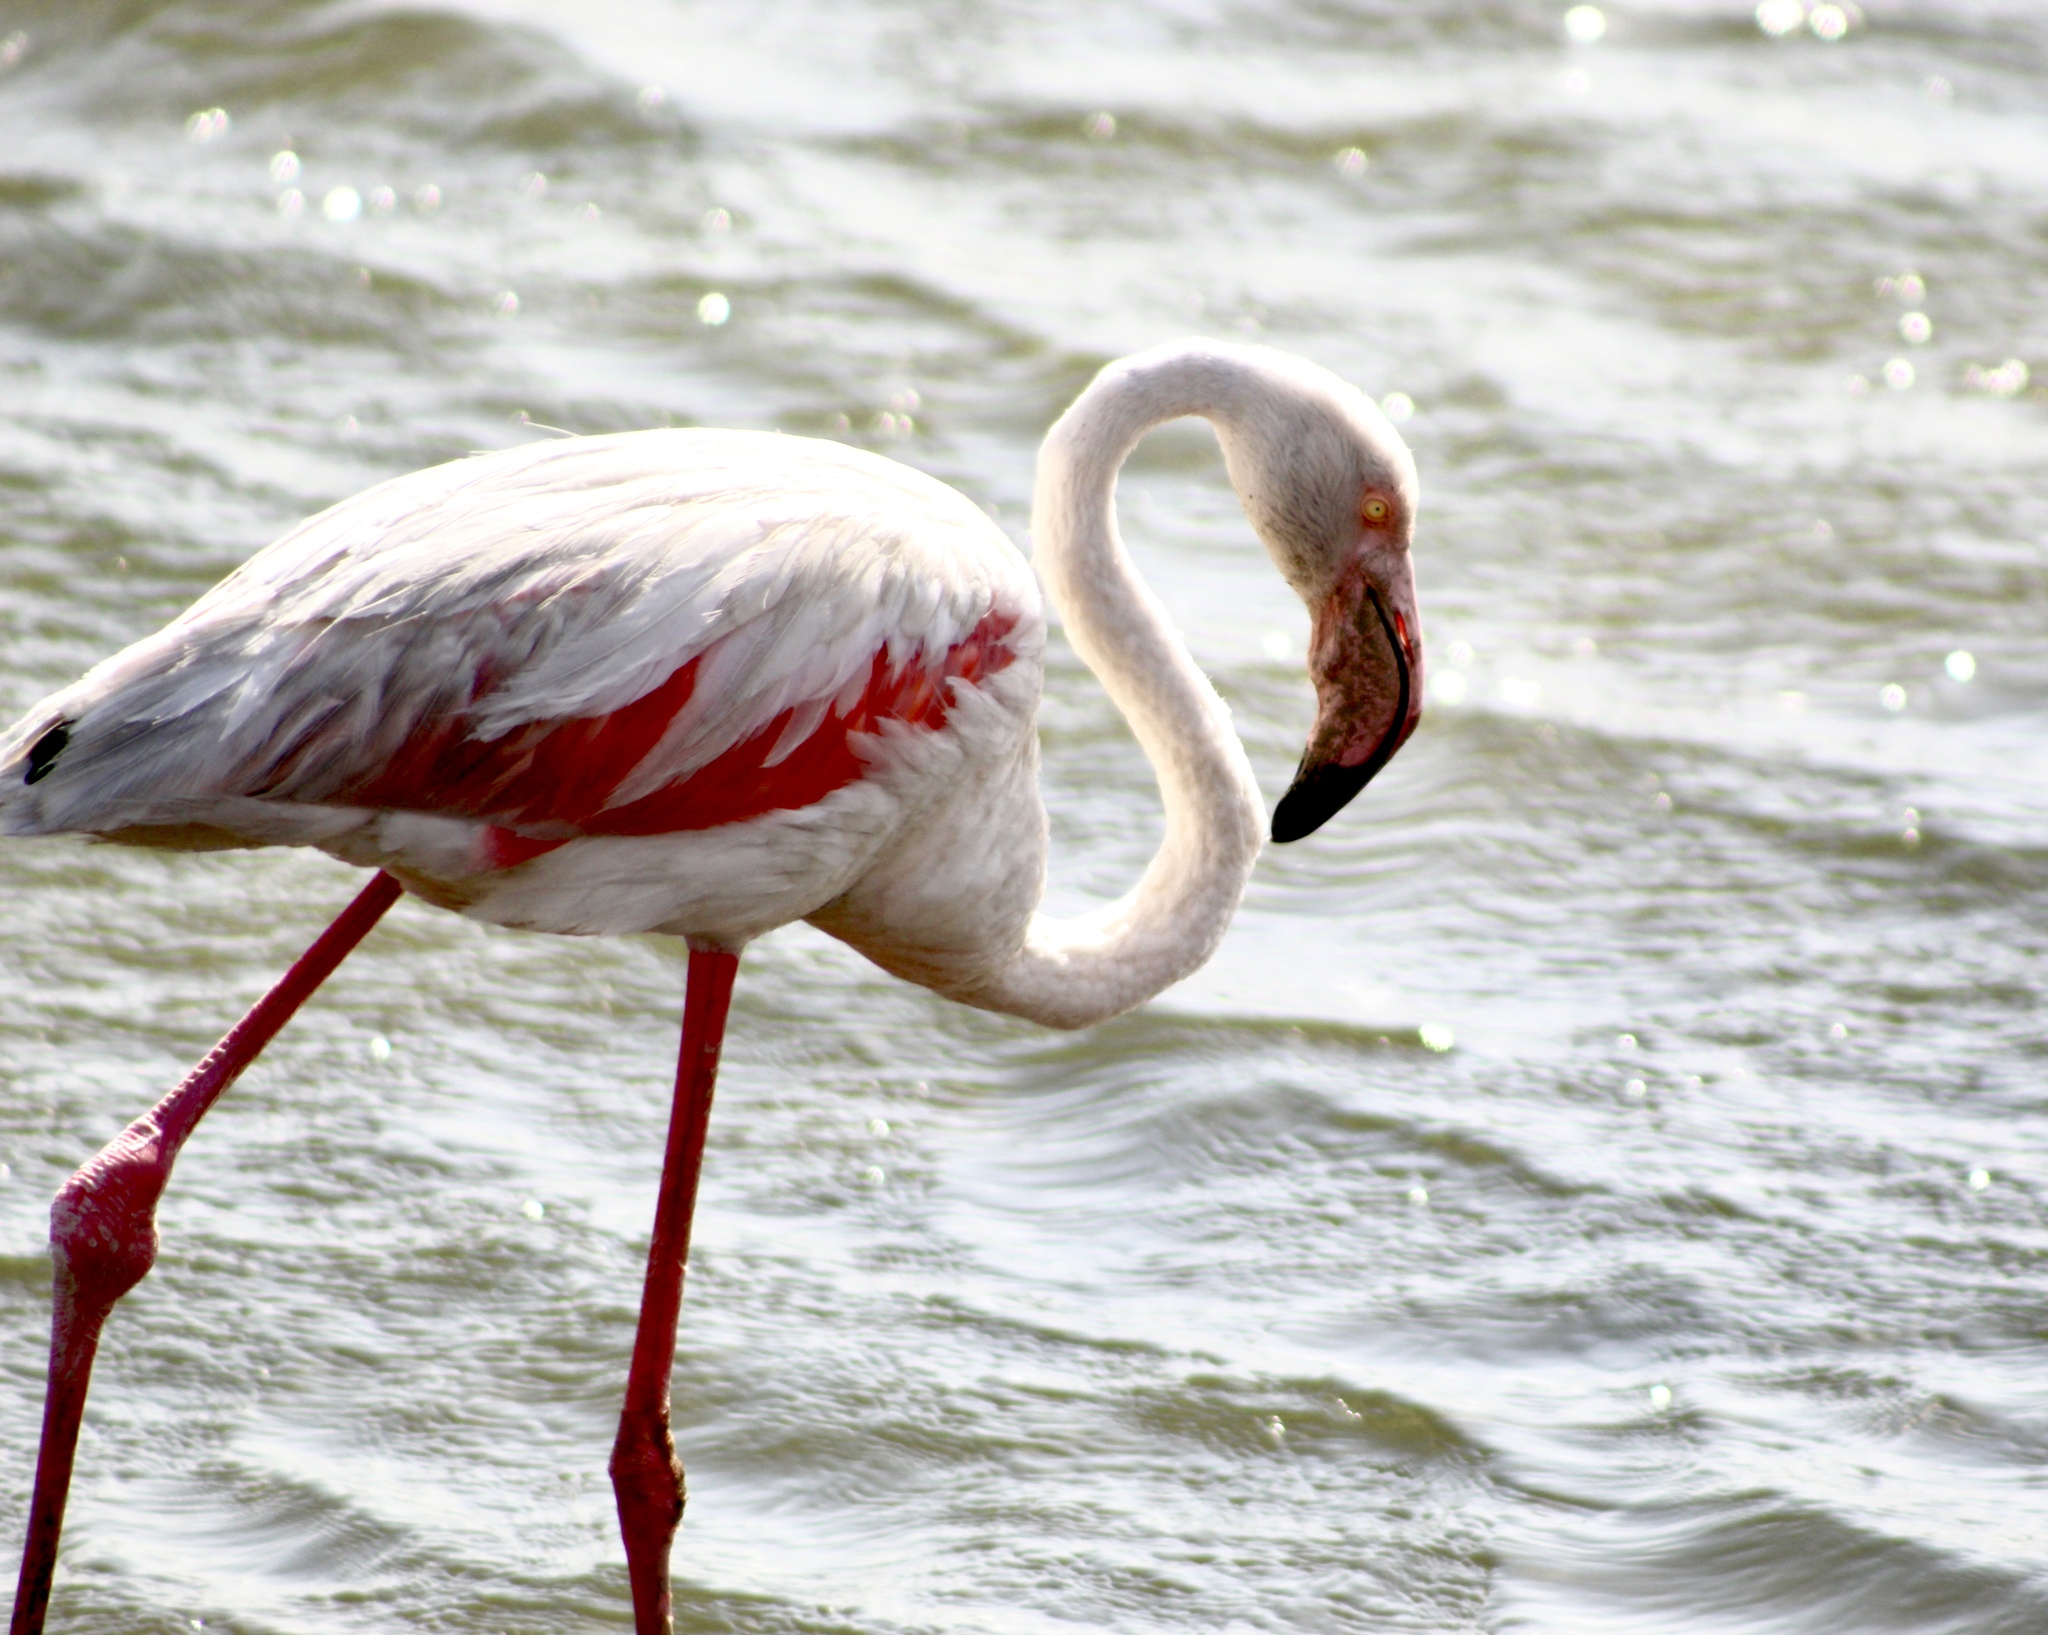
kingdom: Animalia
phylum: Chordata
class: Aves
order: Phoenicopteriformes
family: Phoenicopteridae
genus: Phoenicopterus
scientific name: Phoenicopterus roseus
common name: Greater flamingo
